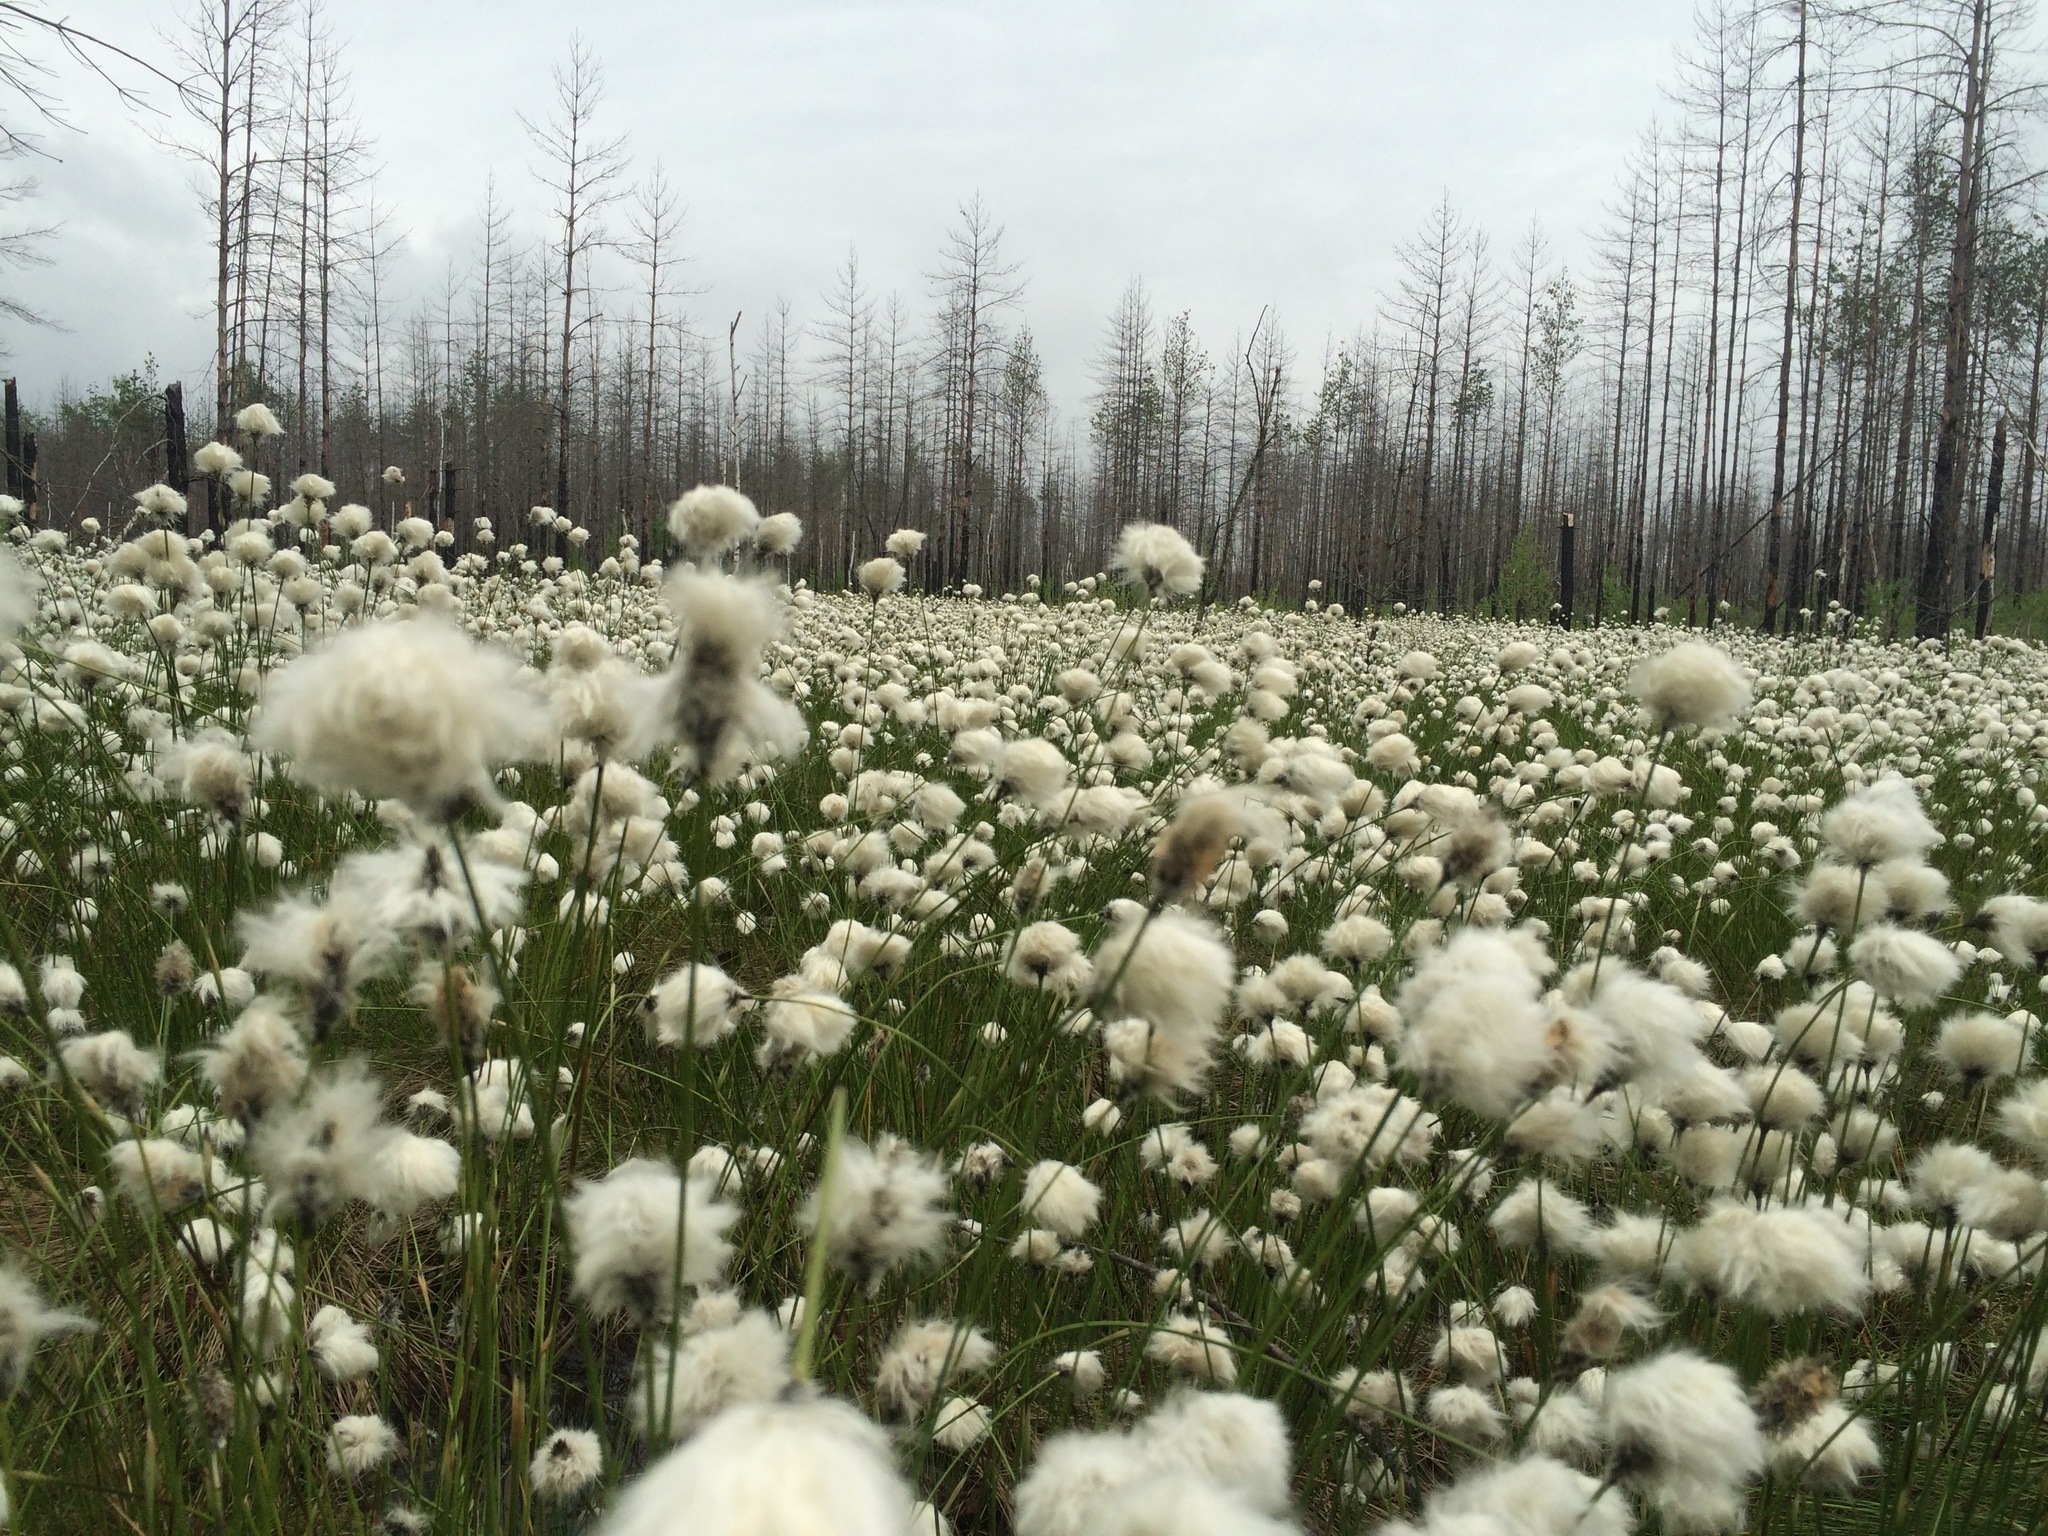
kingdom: Plantae
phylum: Tracheophyta
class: Liliopsida
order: Poales
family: Cyperaceae
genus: Eriophorum
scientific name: Eriophorum vaginatum
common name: Hare's-tail cottongrass
